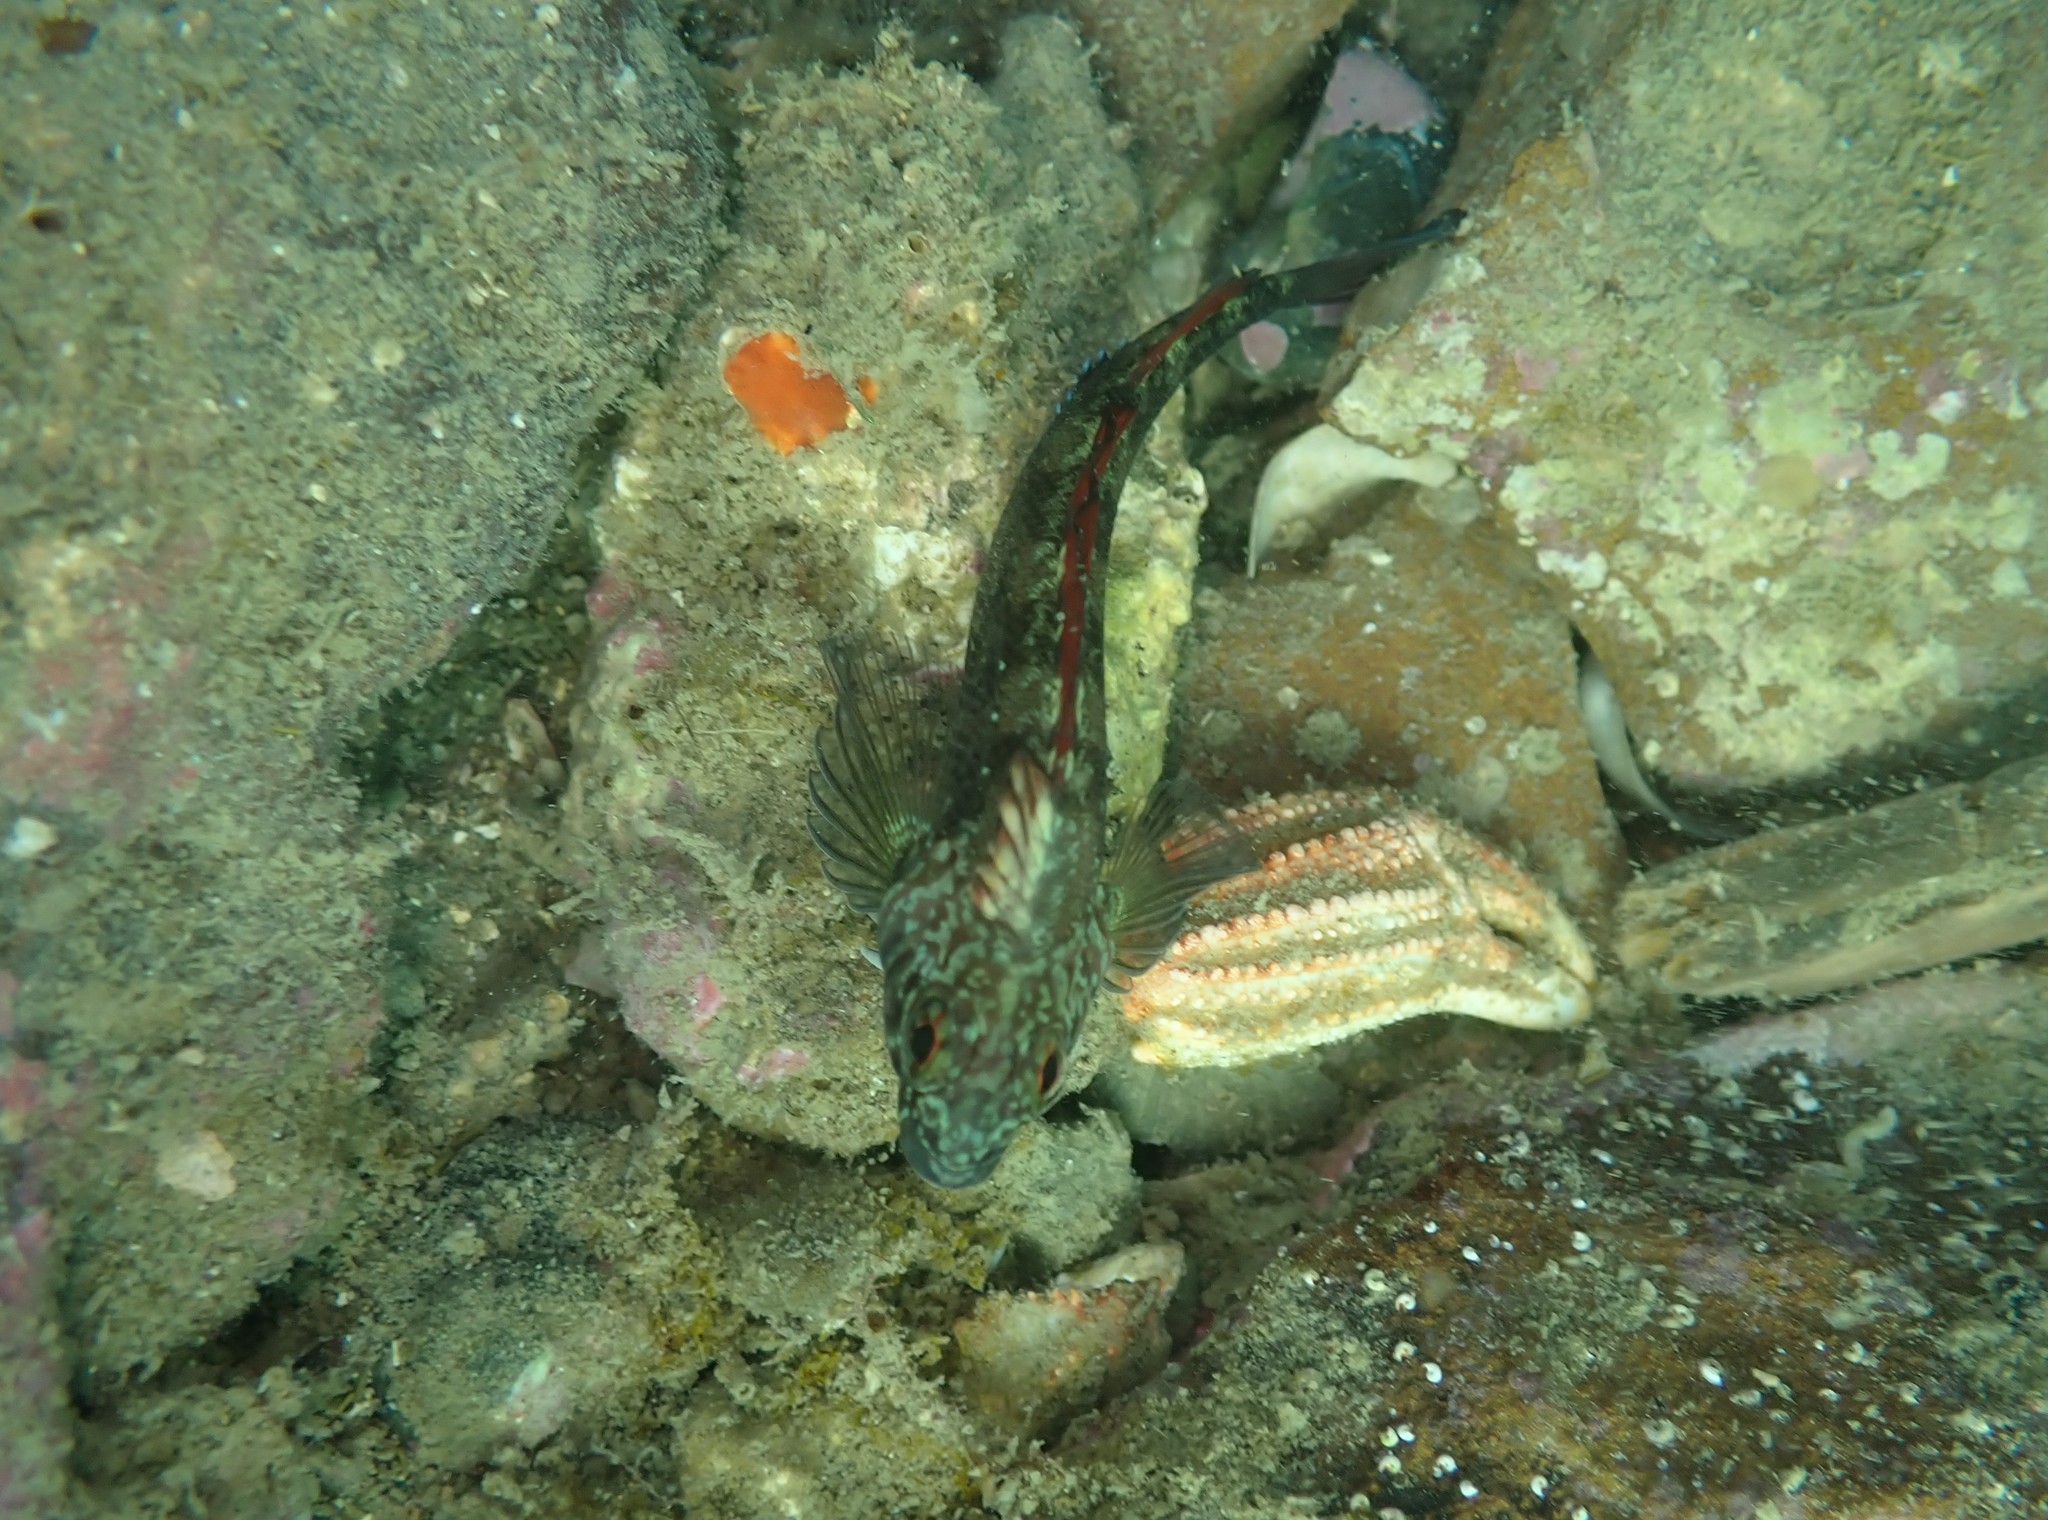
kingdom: Animalia
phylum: Chordata
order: Perciformes
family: Tripterygiidae
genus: Forsterygion
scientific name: Forsterygion lapillum
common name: Common triplefin
